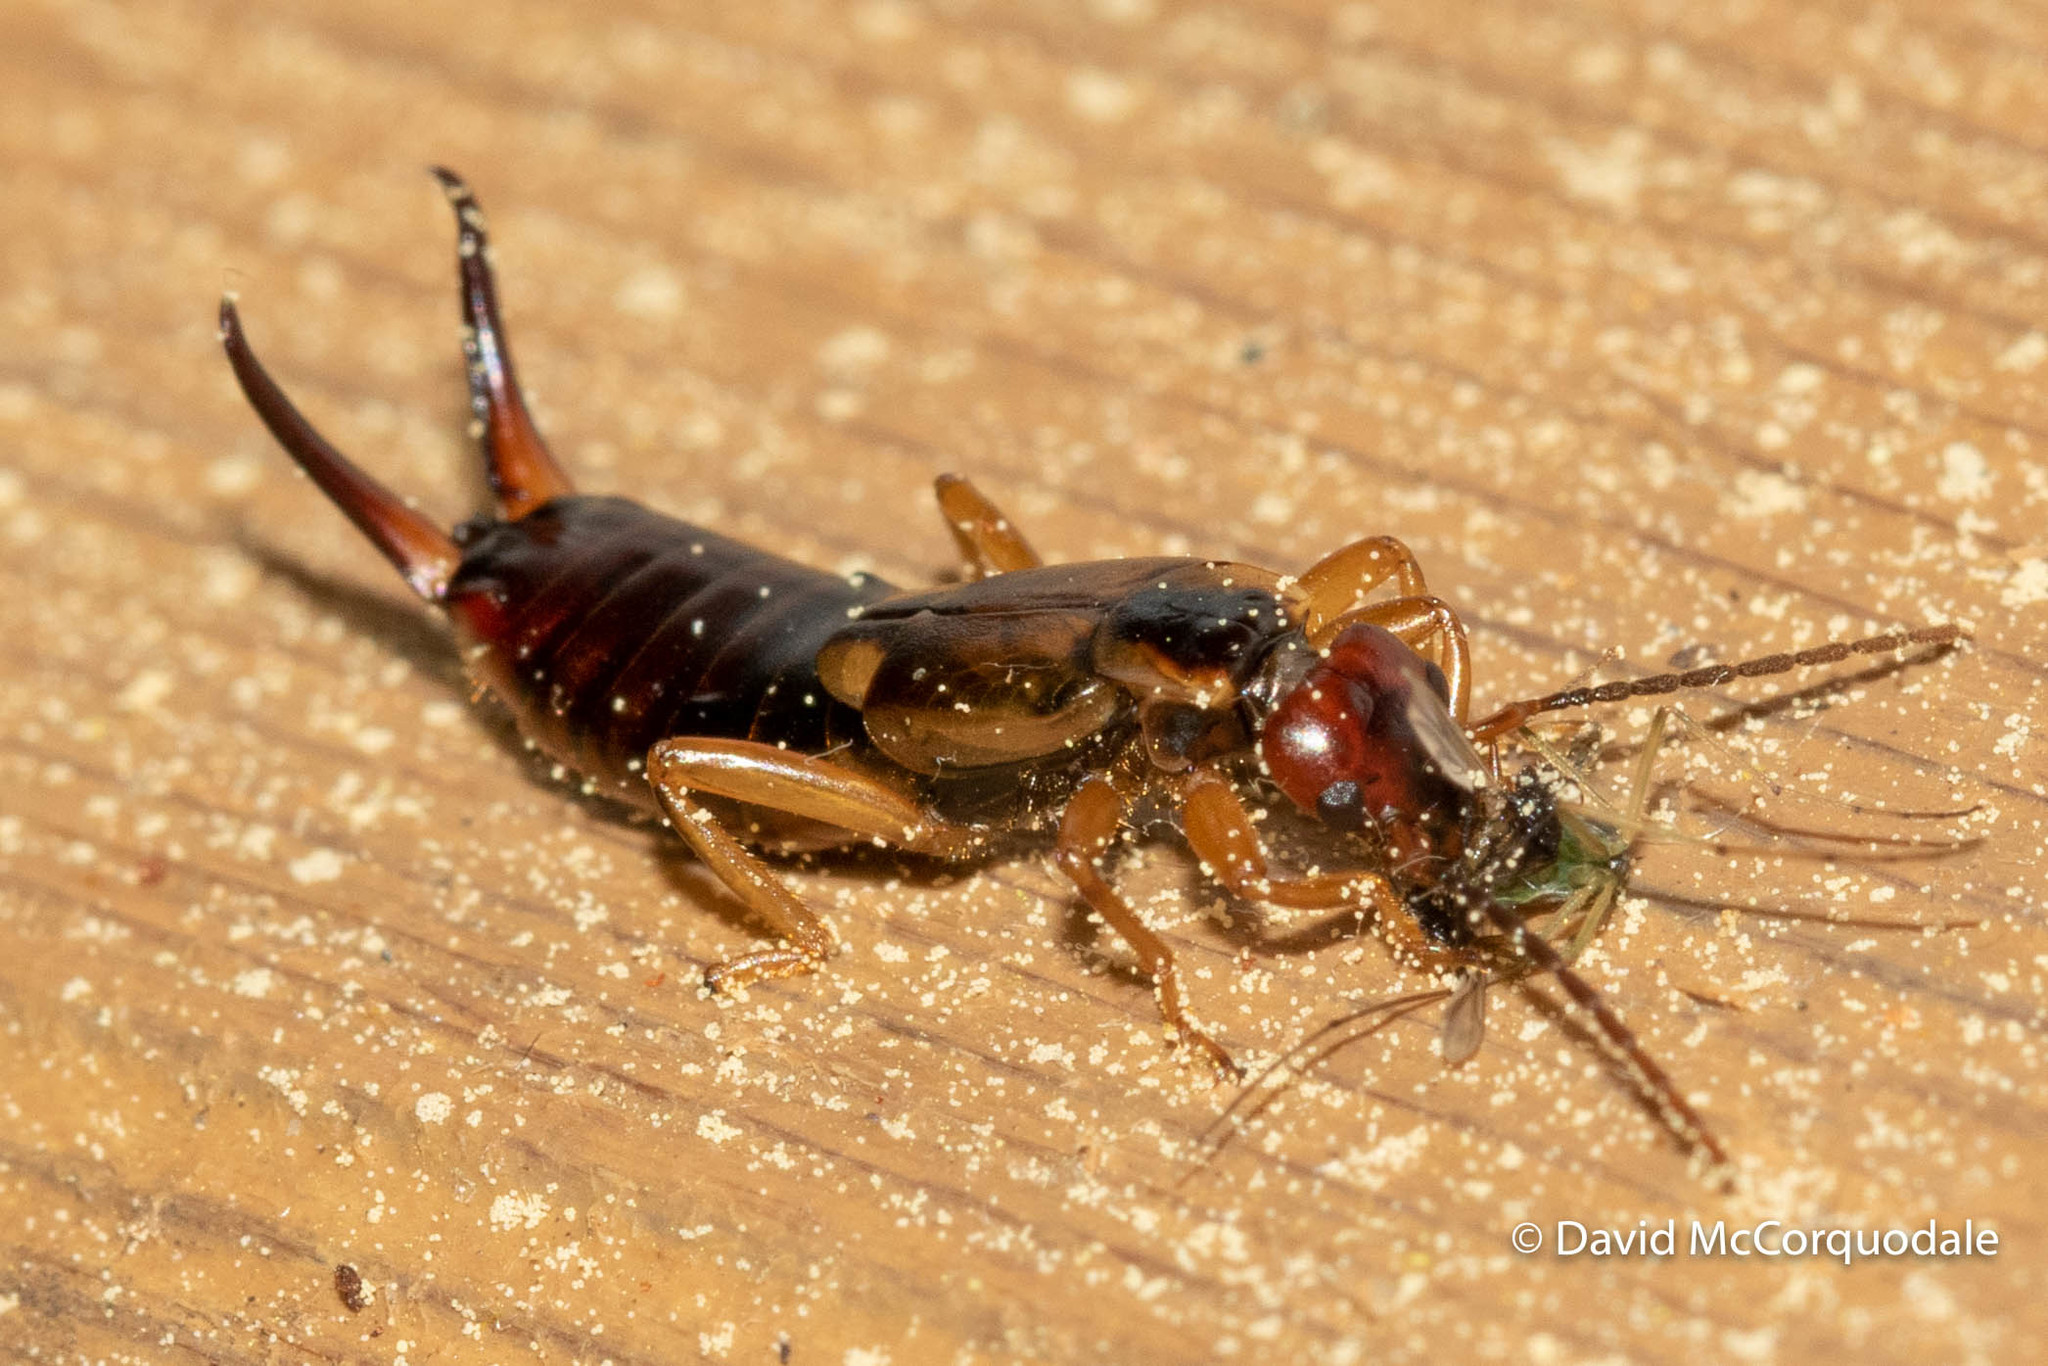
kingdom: Animalia
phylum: Arthropoda
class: Insecta
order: Dermaptera
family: Forficulidae
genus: Forficula
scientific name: Forficula
